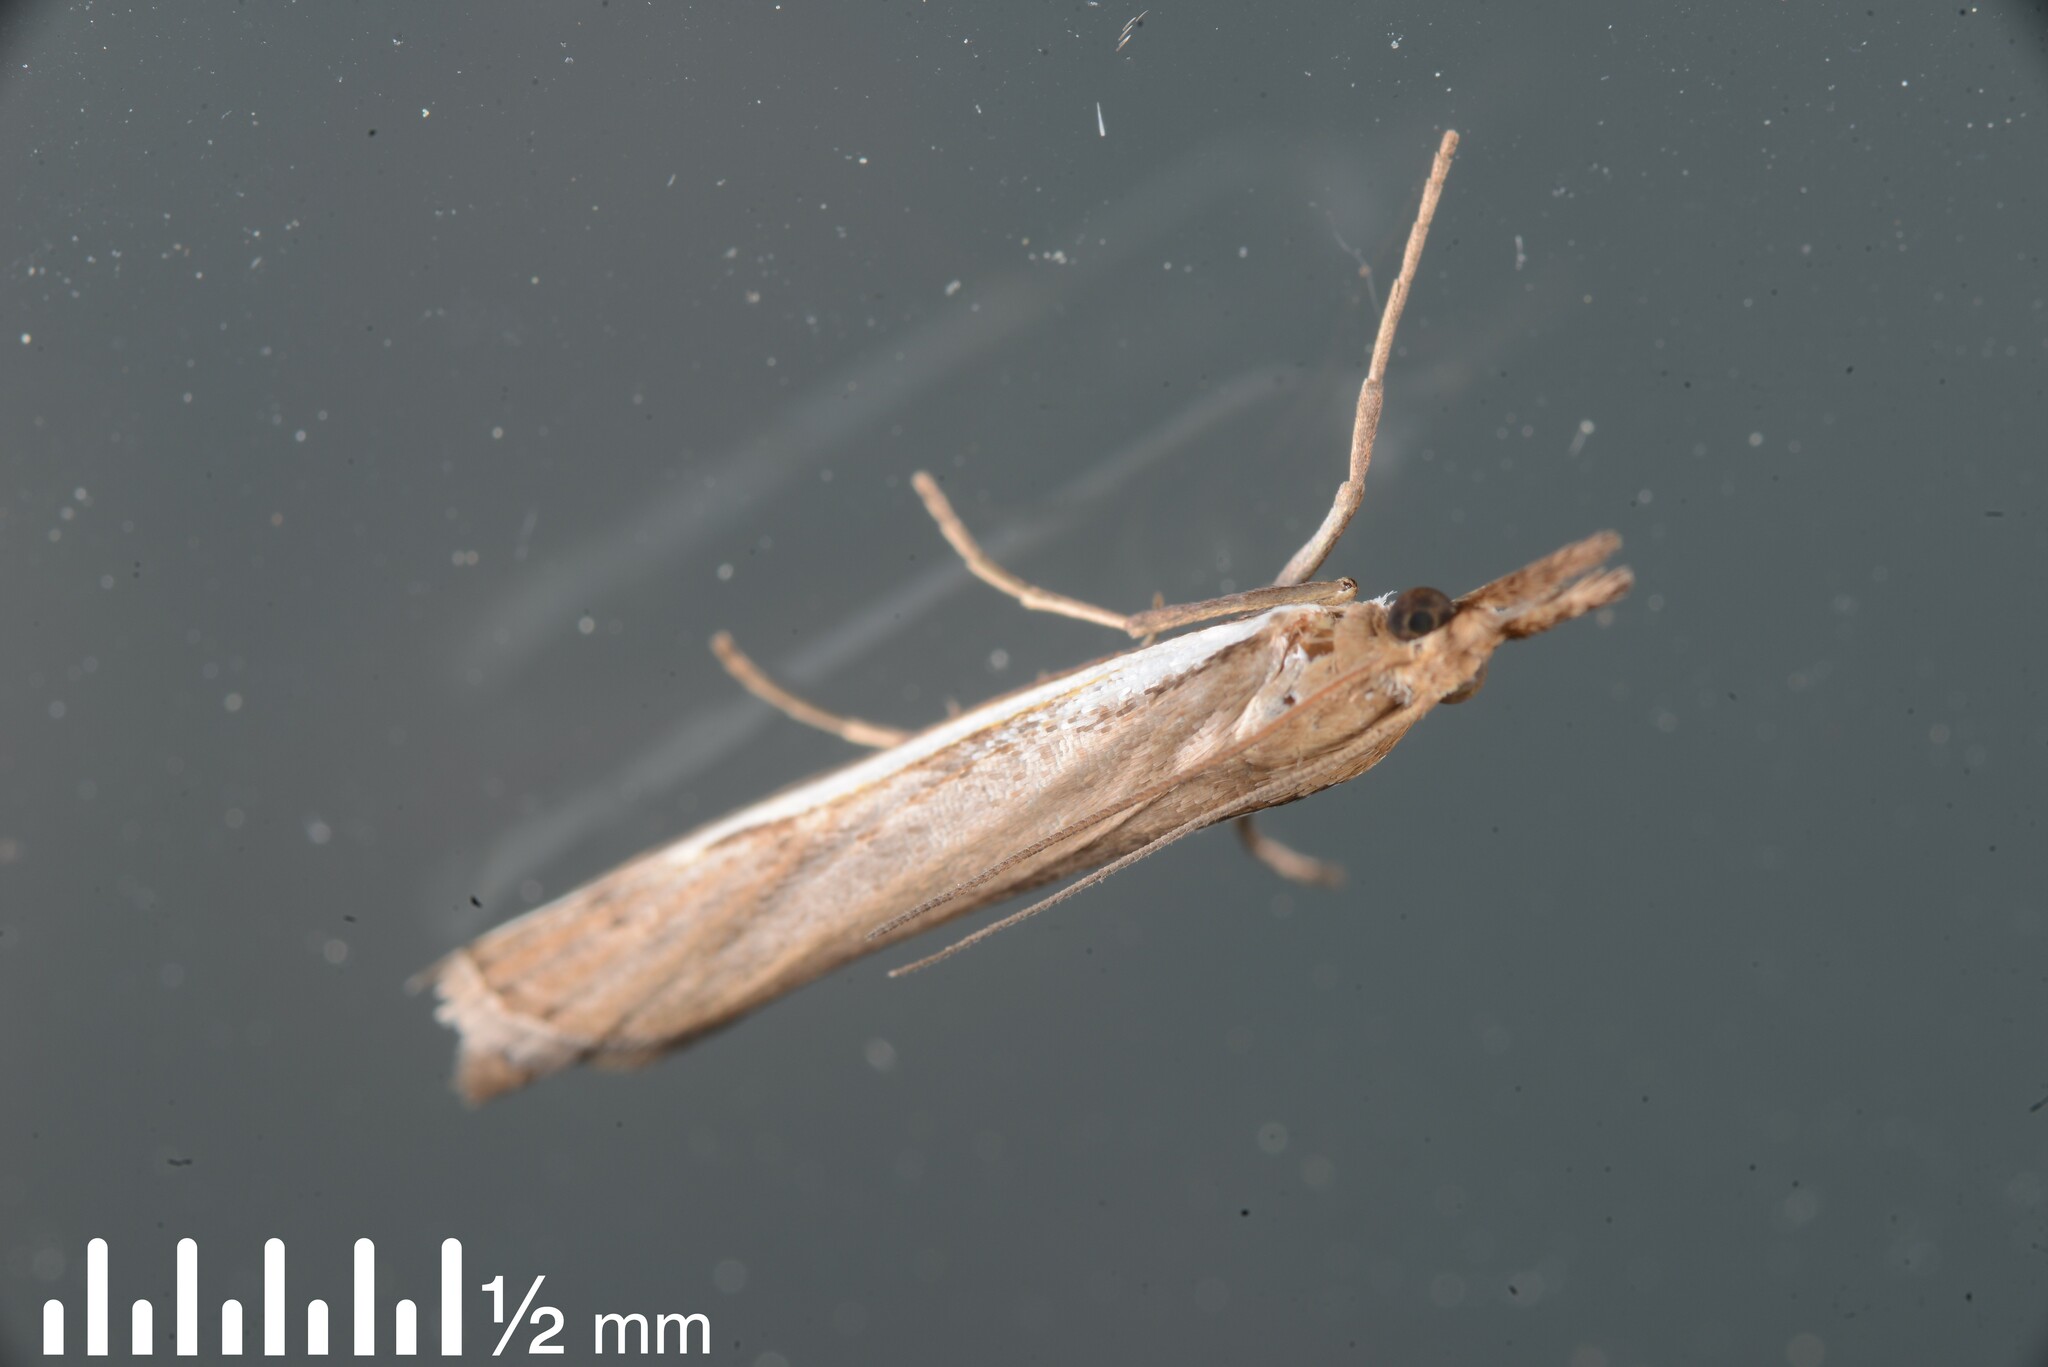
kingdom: Animalia
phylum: Arthropoda
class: Insecta
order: Lepidoptera
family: Crambidae
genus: Orocrambus
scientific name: Orocrambus flexuosellus
